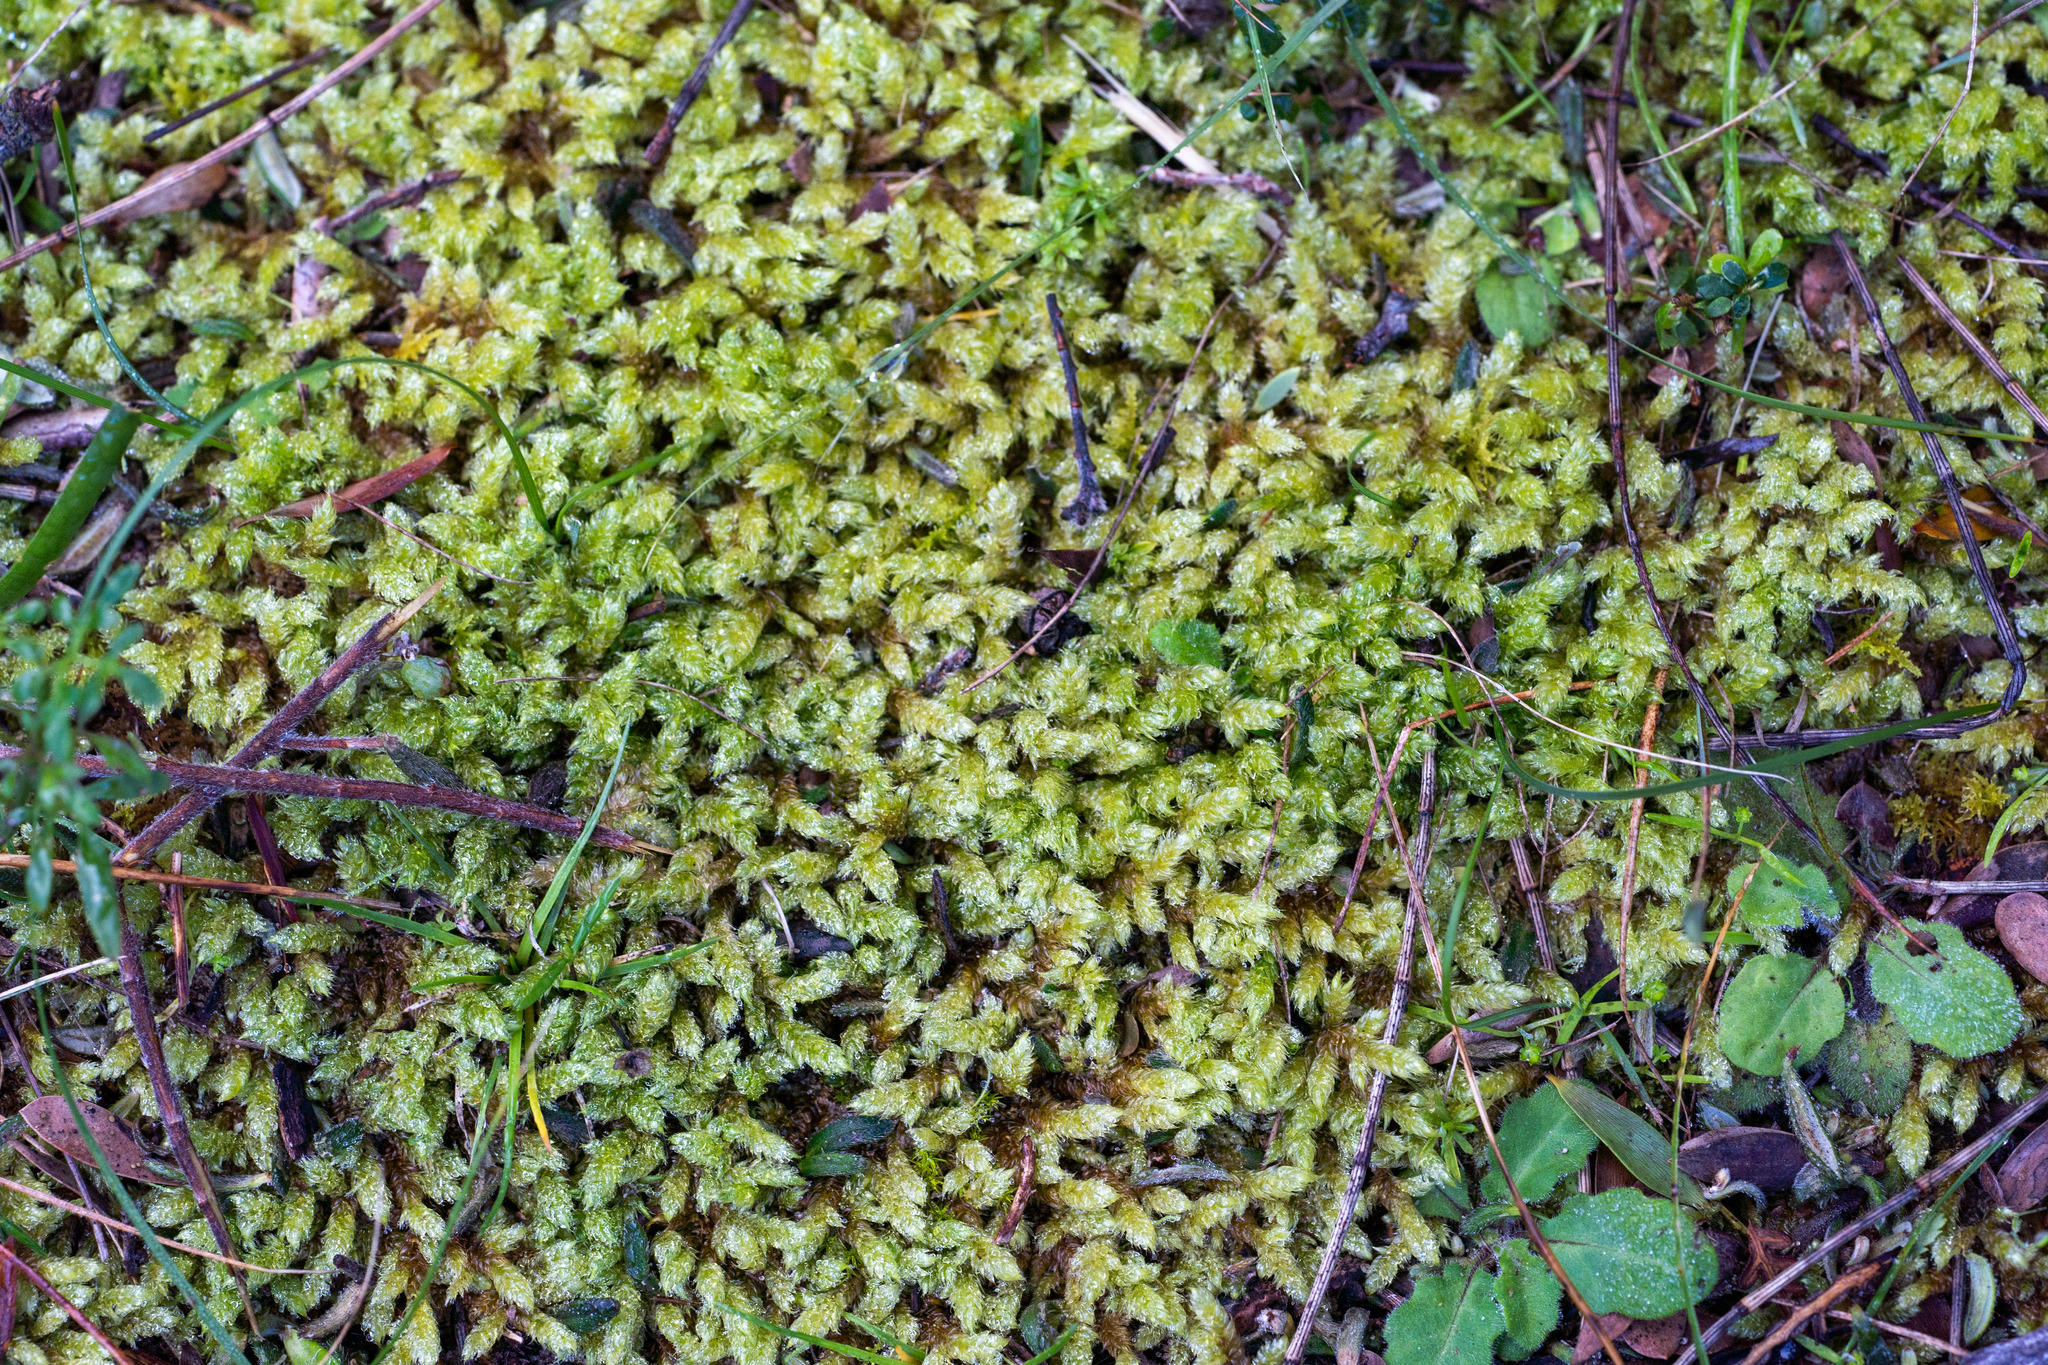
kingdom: Plantae
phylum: Bryophyta
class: Bryopsida
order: Hypnales
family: Hypnaceae
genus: Hypnum
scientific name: Hypnum cupressiforme
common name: Cypress-leaved plait-moss
